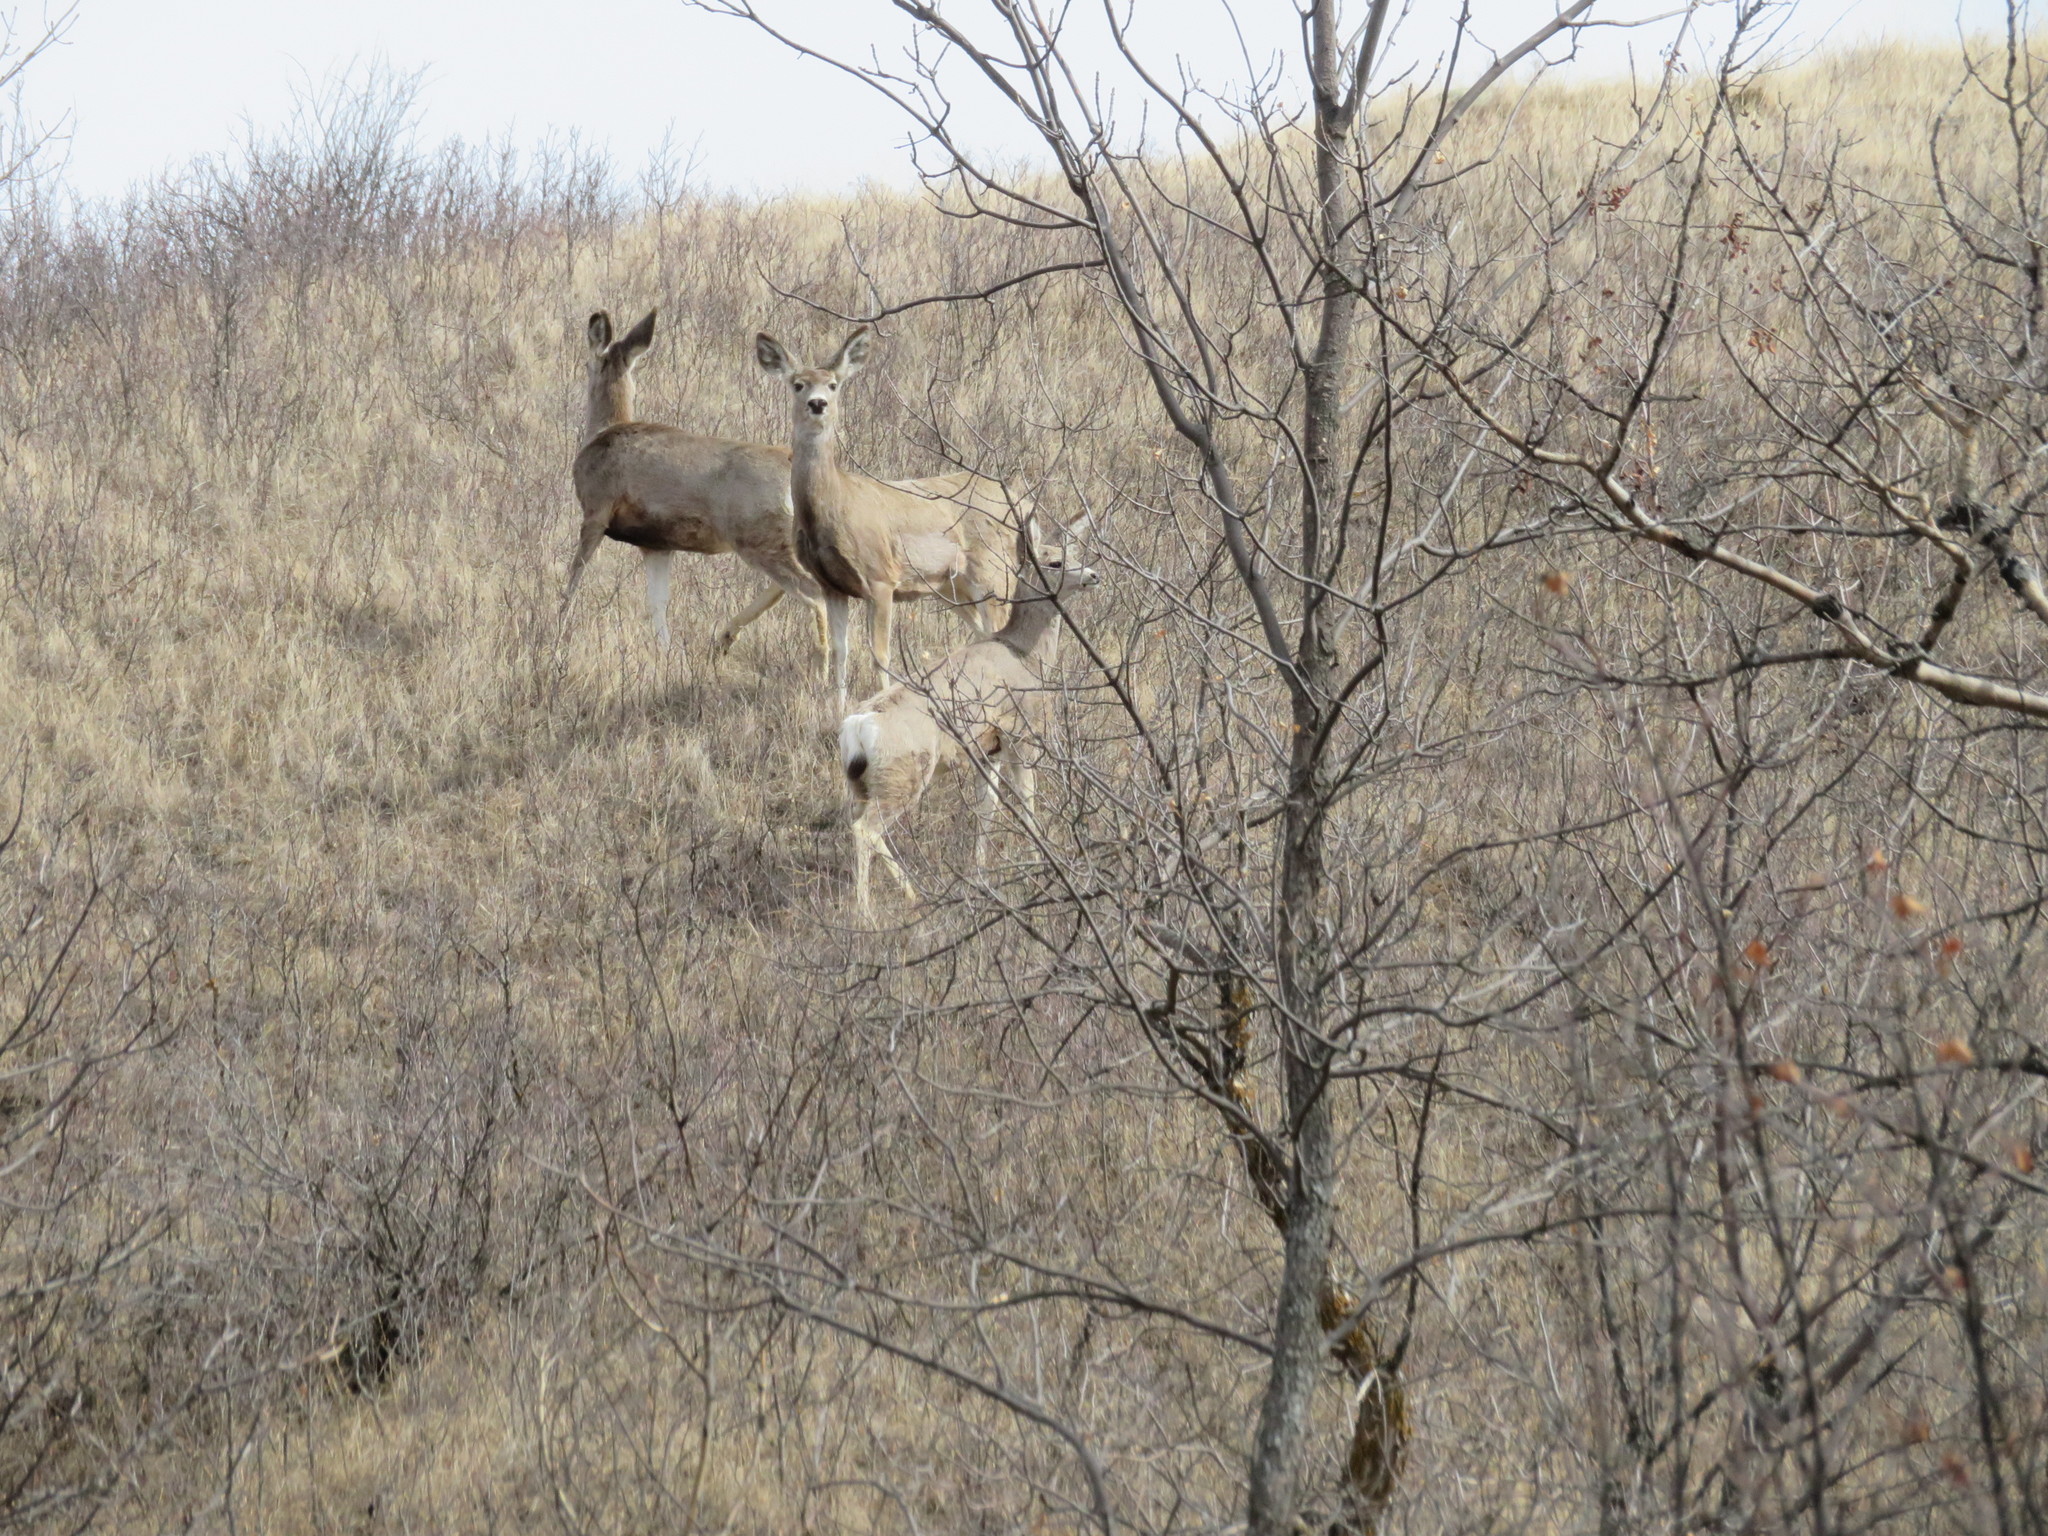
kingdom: Animalia
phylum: Chordata
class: Mammalia
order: Artiodactyla
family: Cervidae
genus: Odocoileus
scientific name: Odocoileus hemionus
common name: Mule deer
